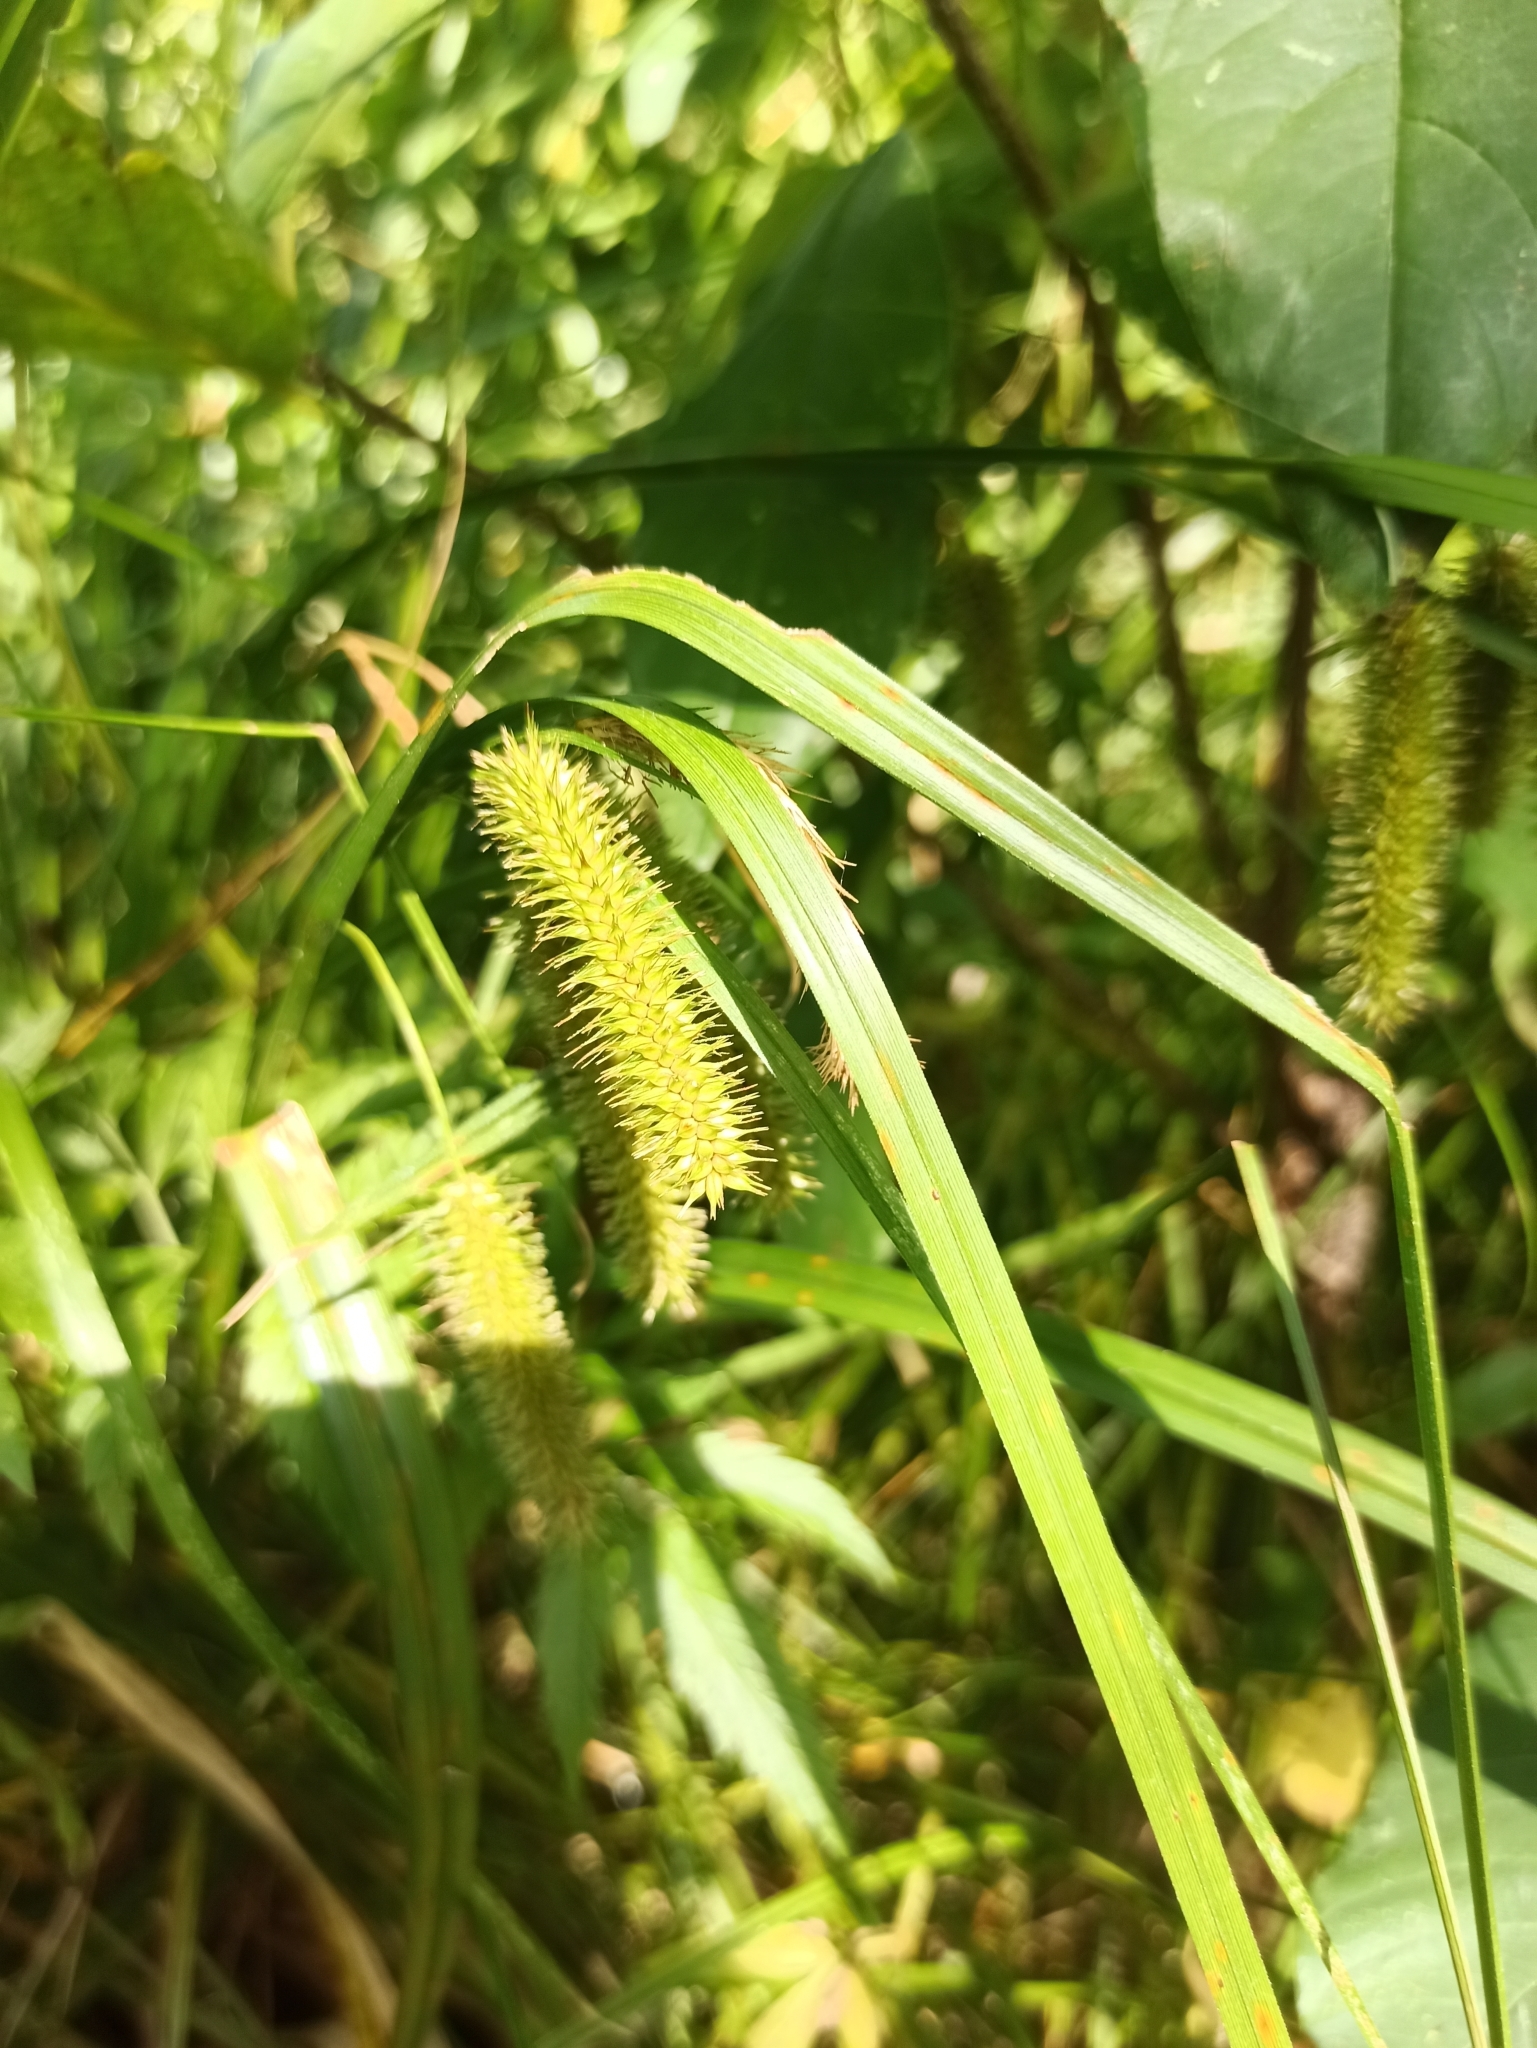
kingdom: Plantae
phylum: Tracheophyta
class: Liliopsida
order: Poales
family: Cyperaceae
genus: Carex
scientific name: Carex pseudocyperus
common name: Cyperus sedge
